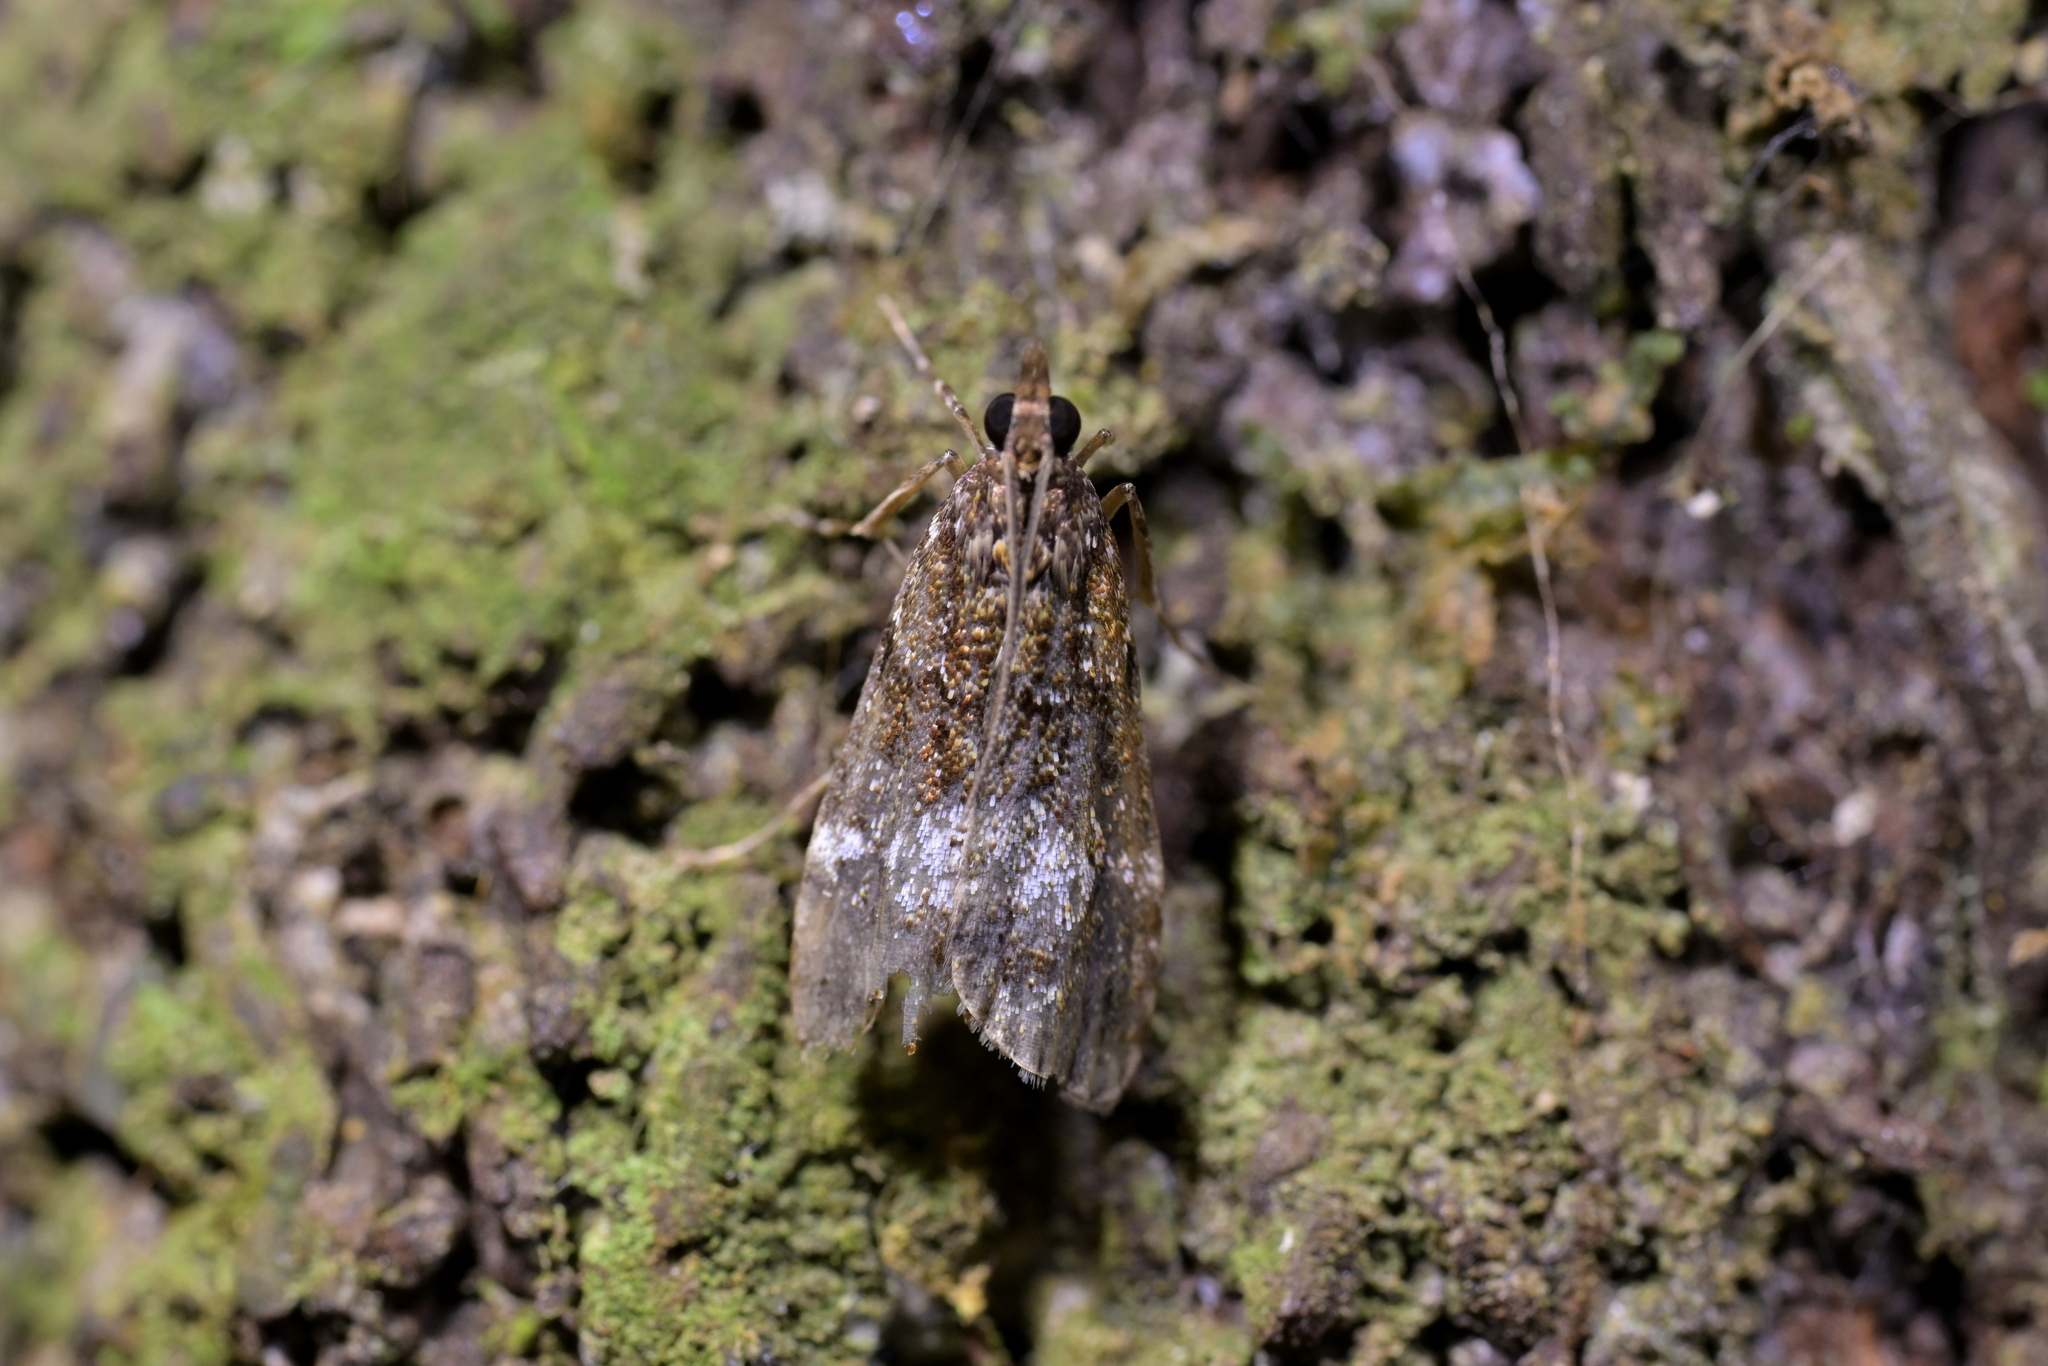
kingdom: Animalia
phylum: Arthropoda
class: Insecta
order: Lepidoptera
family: Crambidae
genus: Eudonia
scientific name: Eudonia dinodes
